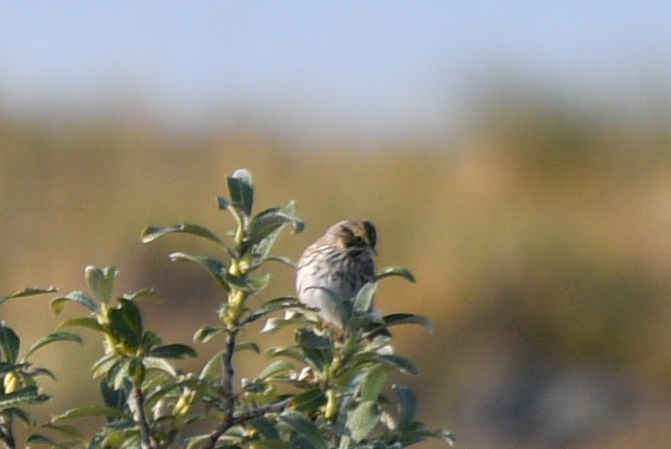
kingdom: Animalia
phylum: Chordata
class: Aves
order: Passeriformes
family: Passerellidae
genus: Passerculus
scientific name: Passerculus sandwichensis
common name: Savannah sparrow
